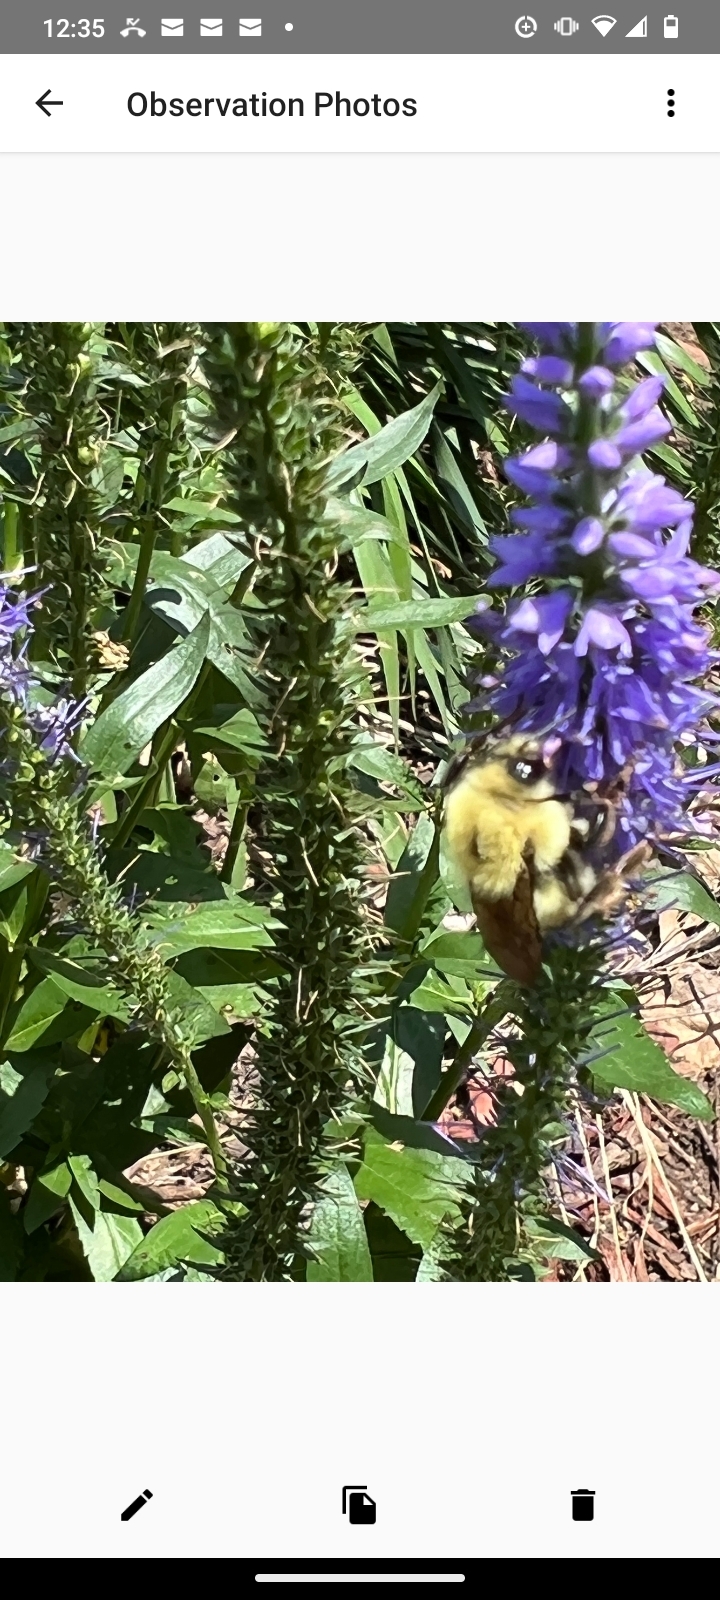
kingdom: Animalia
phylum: Arthropoda
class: Insecta
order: Hymenoptera
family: Apidae
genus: Bombus
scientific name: Bombus bimaculatus
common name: Two-spotted bumble bee
